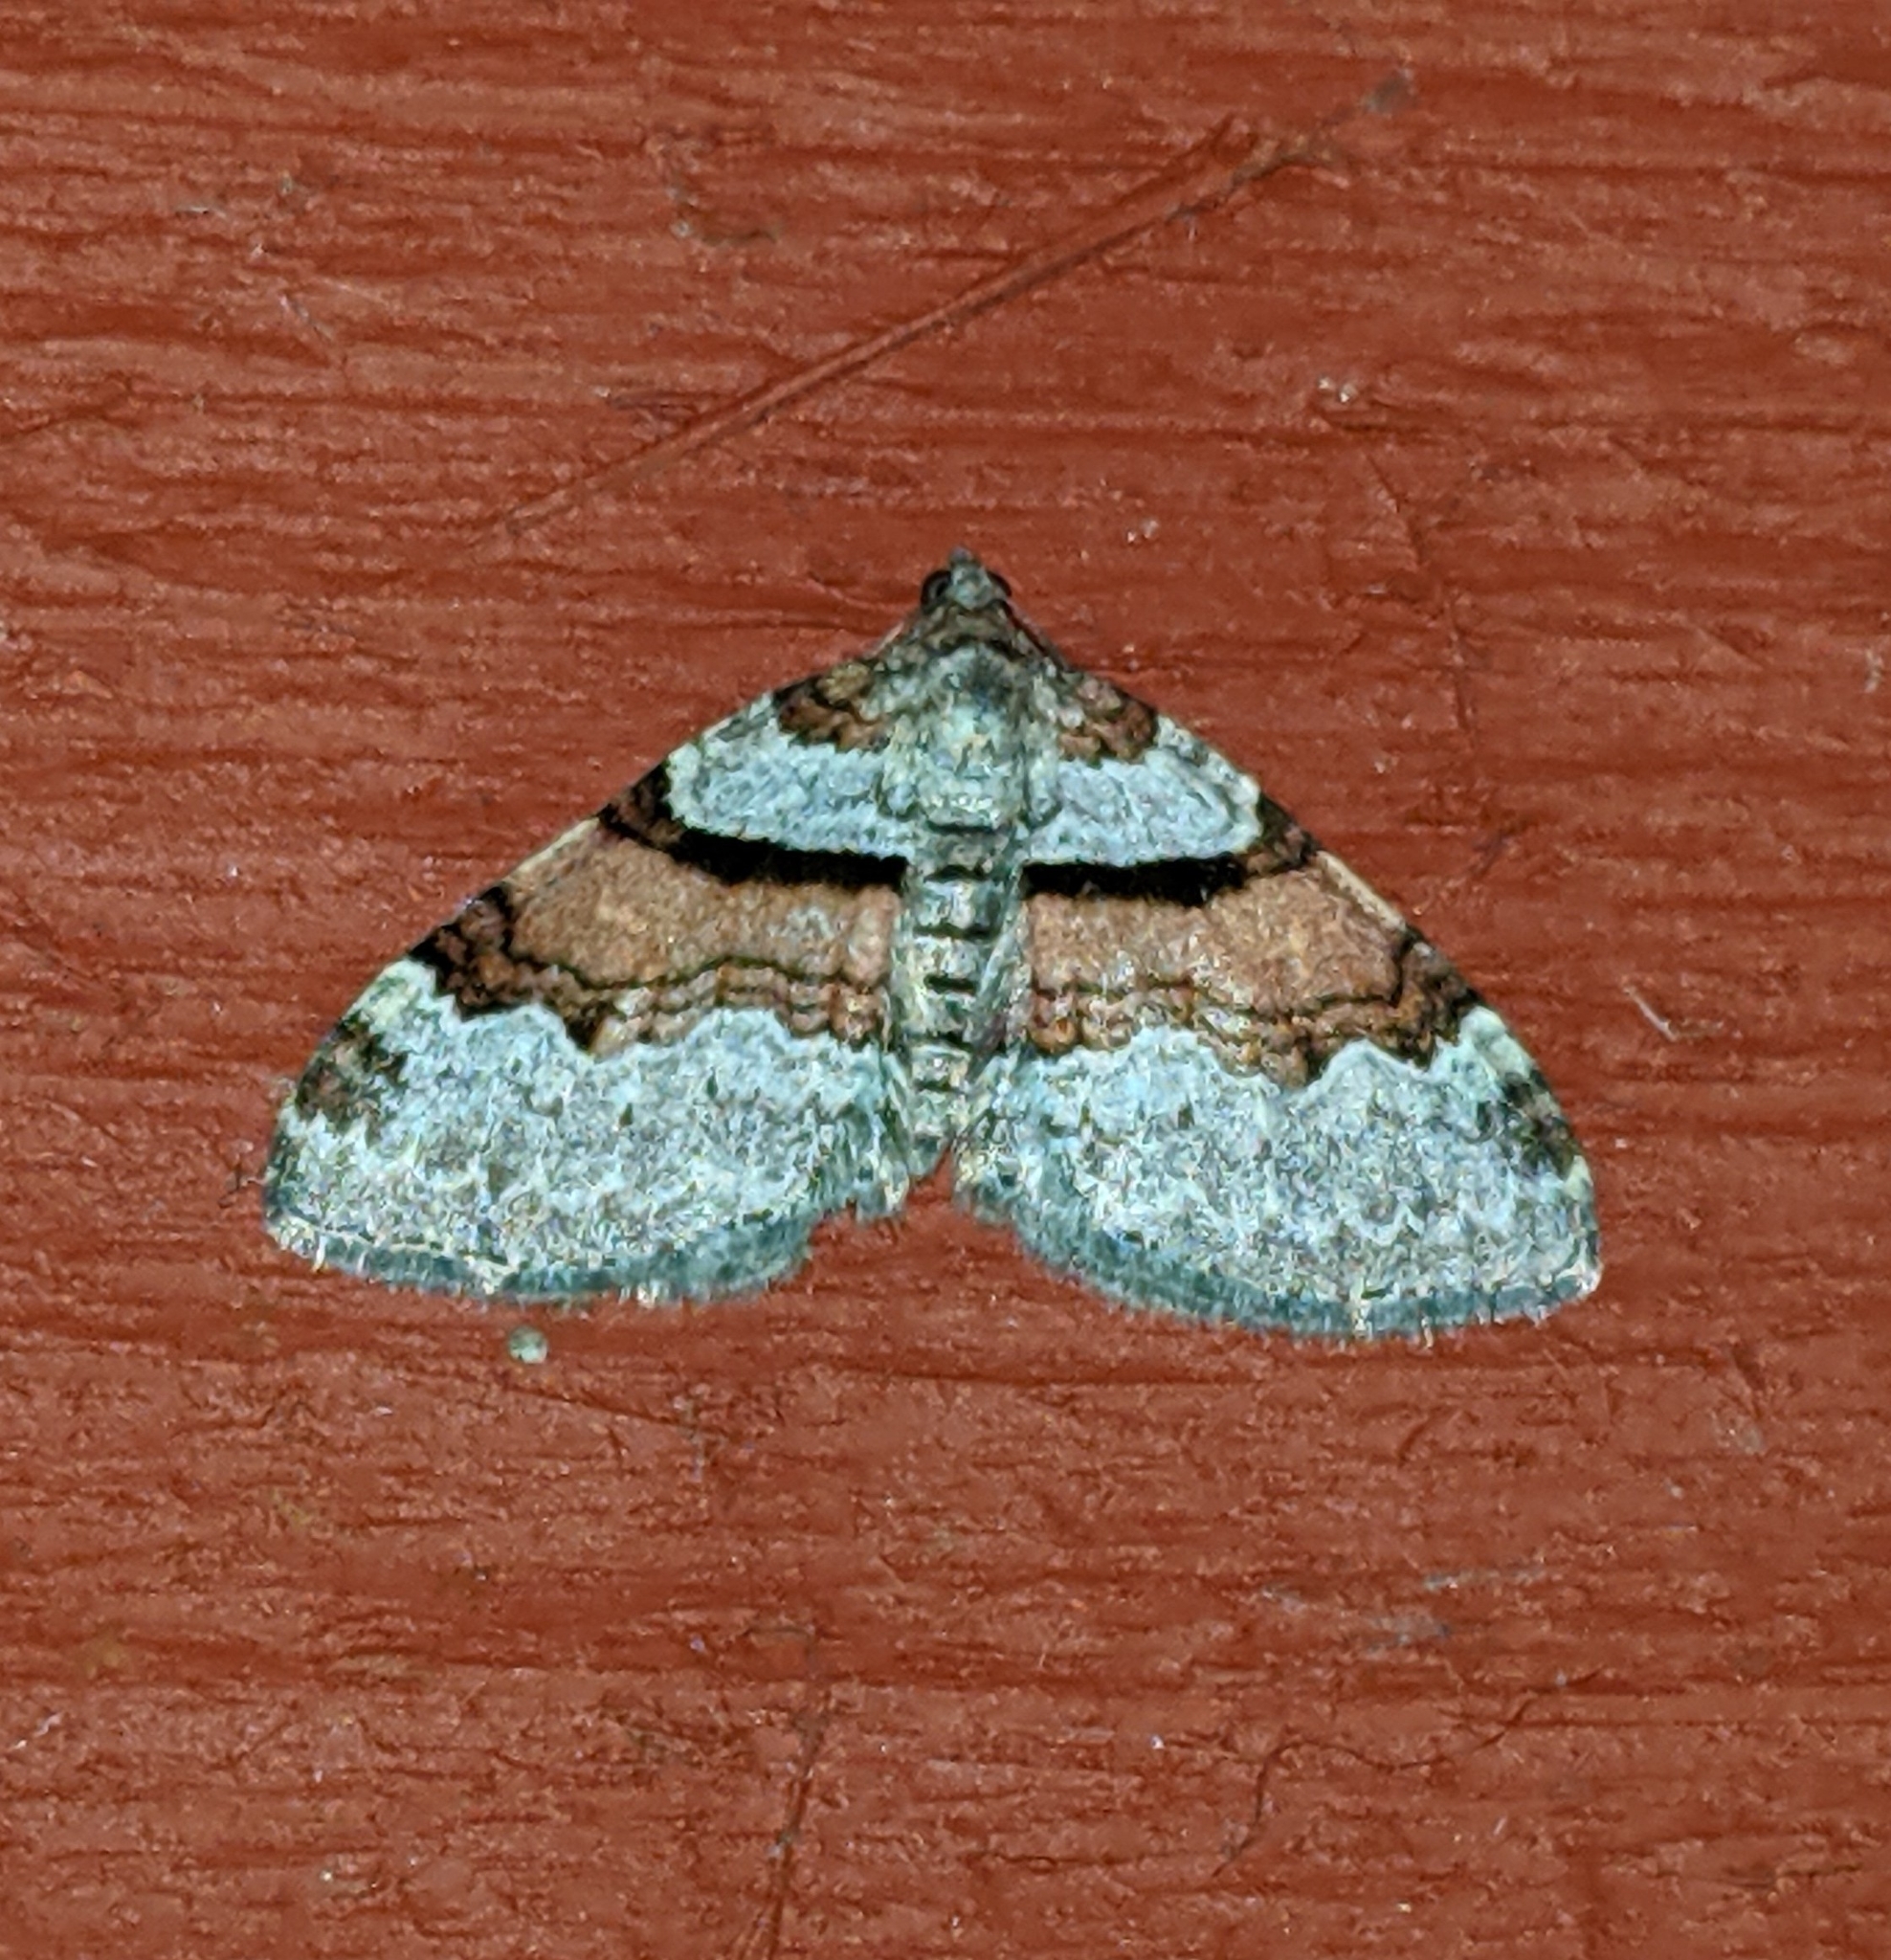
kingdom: Animalia
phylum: Arthropoda
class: Insecta
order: Lepidoptera
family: Geometridae
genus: Xanthorhoe
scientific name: Xanthorhoe labradorensis
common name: Labrador carpet
